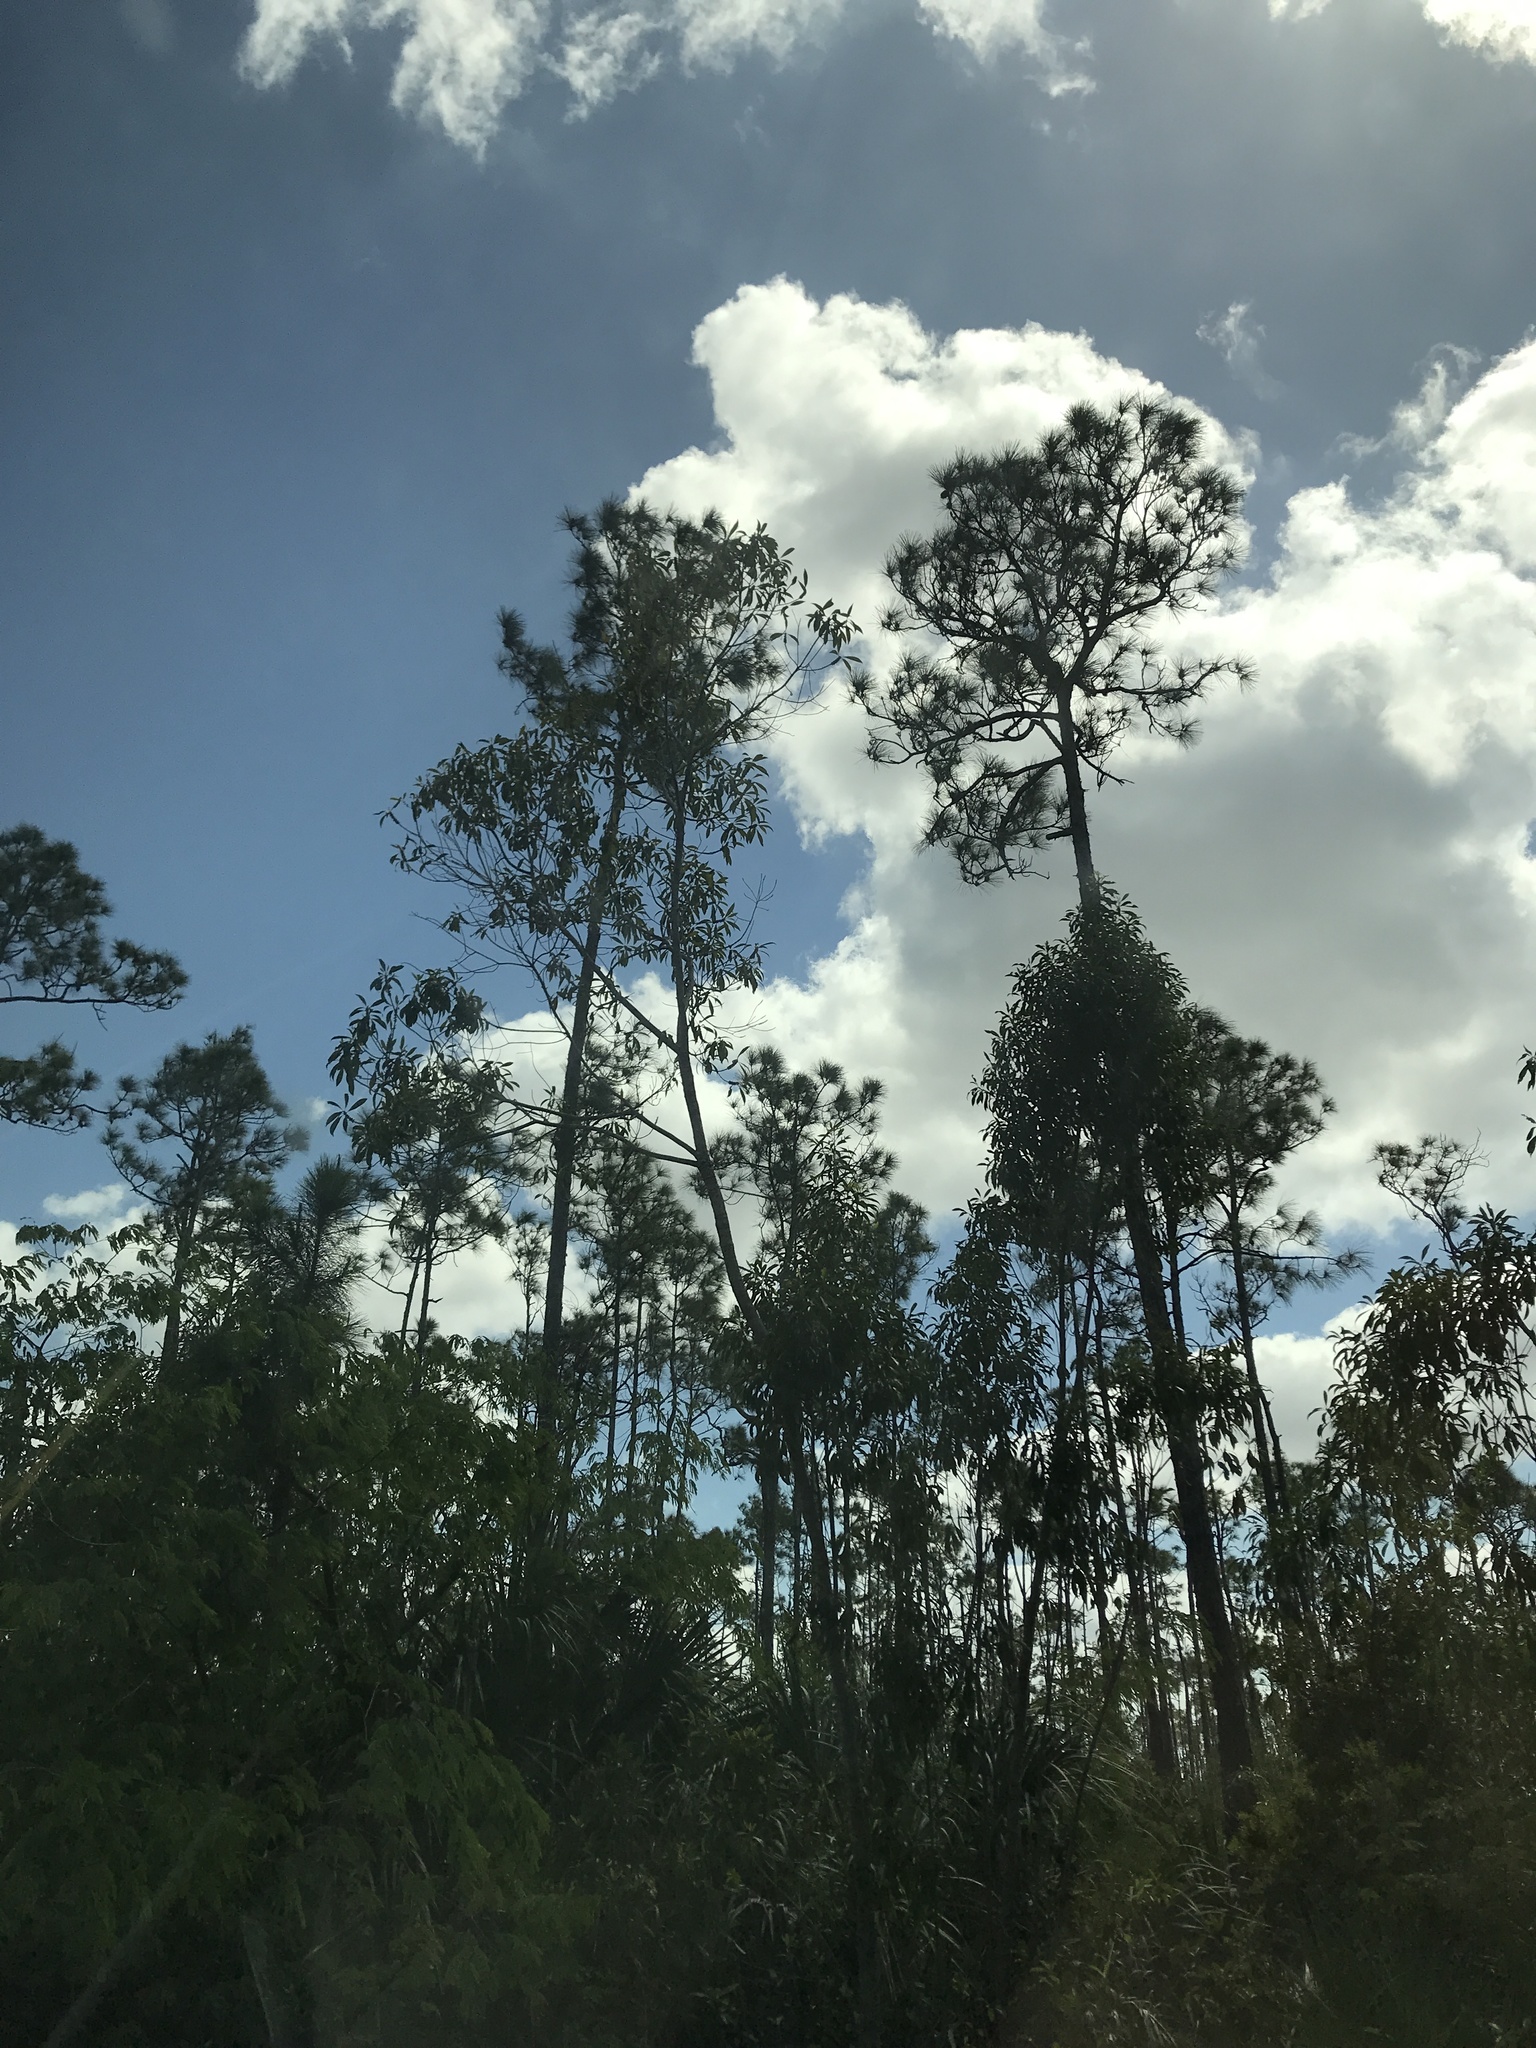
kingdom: Plantae
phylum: Tracheophyta
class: Pinopsida
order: Pinales
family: Pinaceae
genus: Pinus
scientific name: Pinus elliottii
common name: Slash pine
